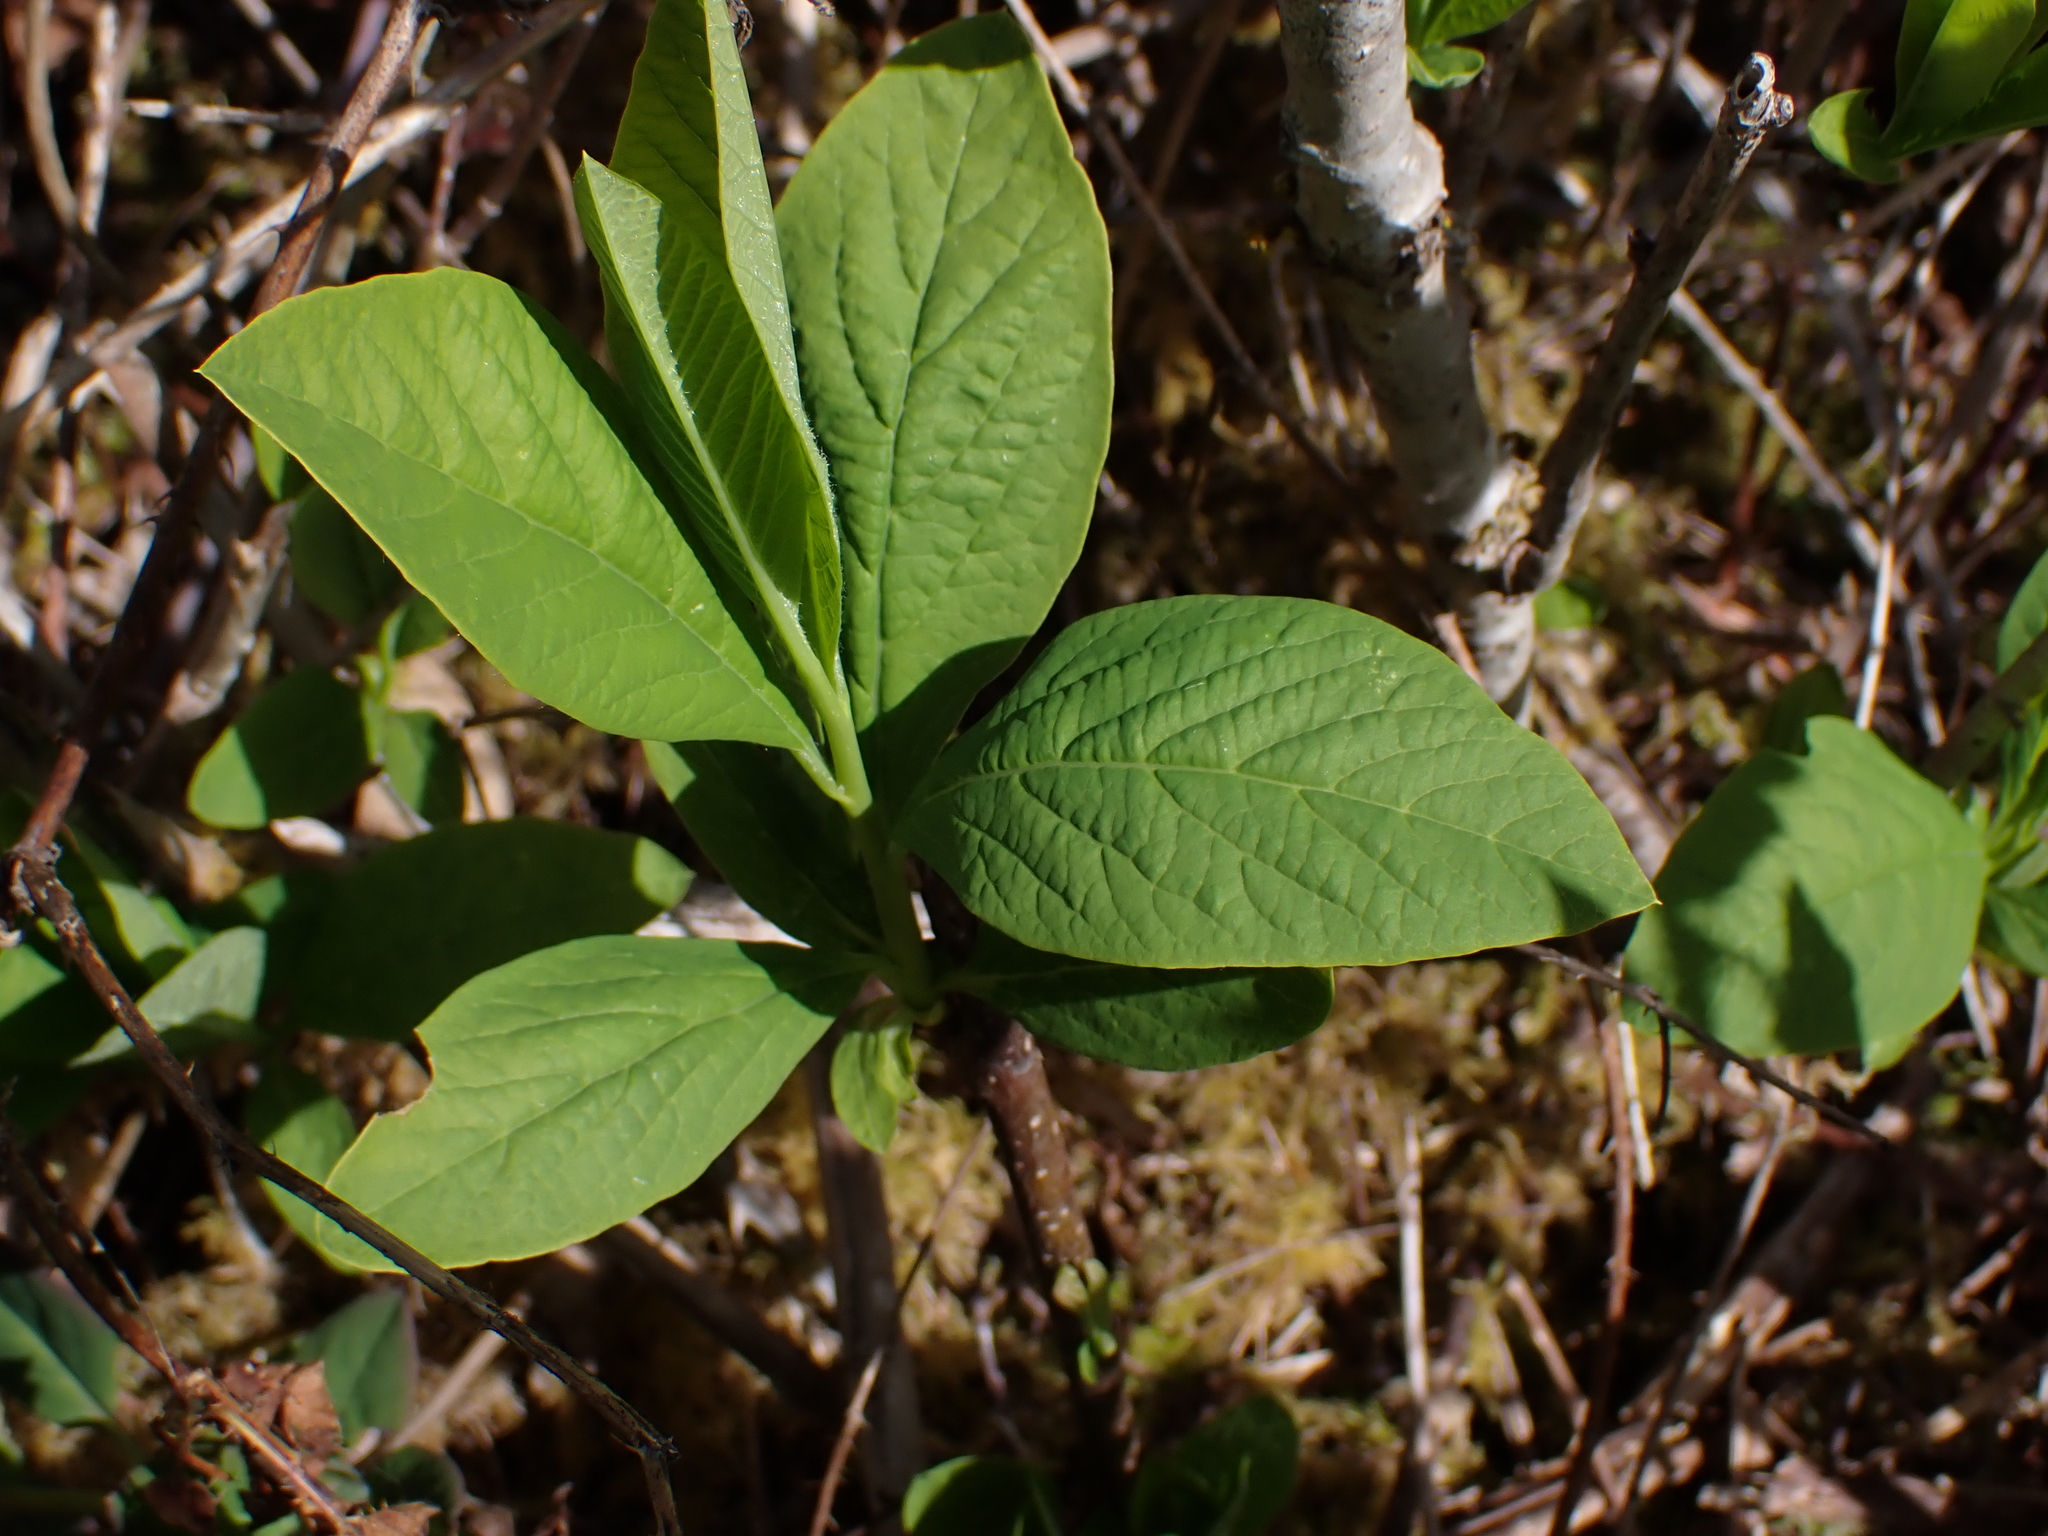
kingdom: Plantae
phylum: Tracheophyta
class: Magnoliopsida
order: Rosales
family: Rosaceae
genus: Oemleria
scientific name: Oemleria cerasiformis
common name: Osoberry
